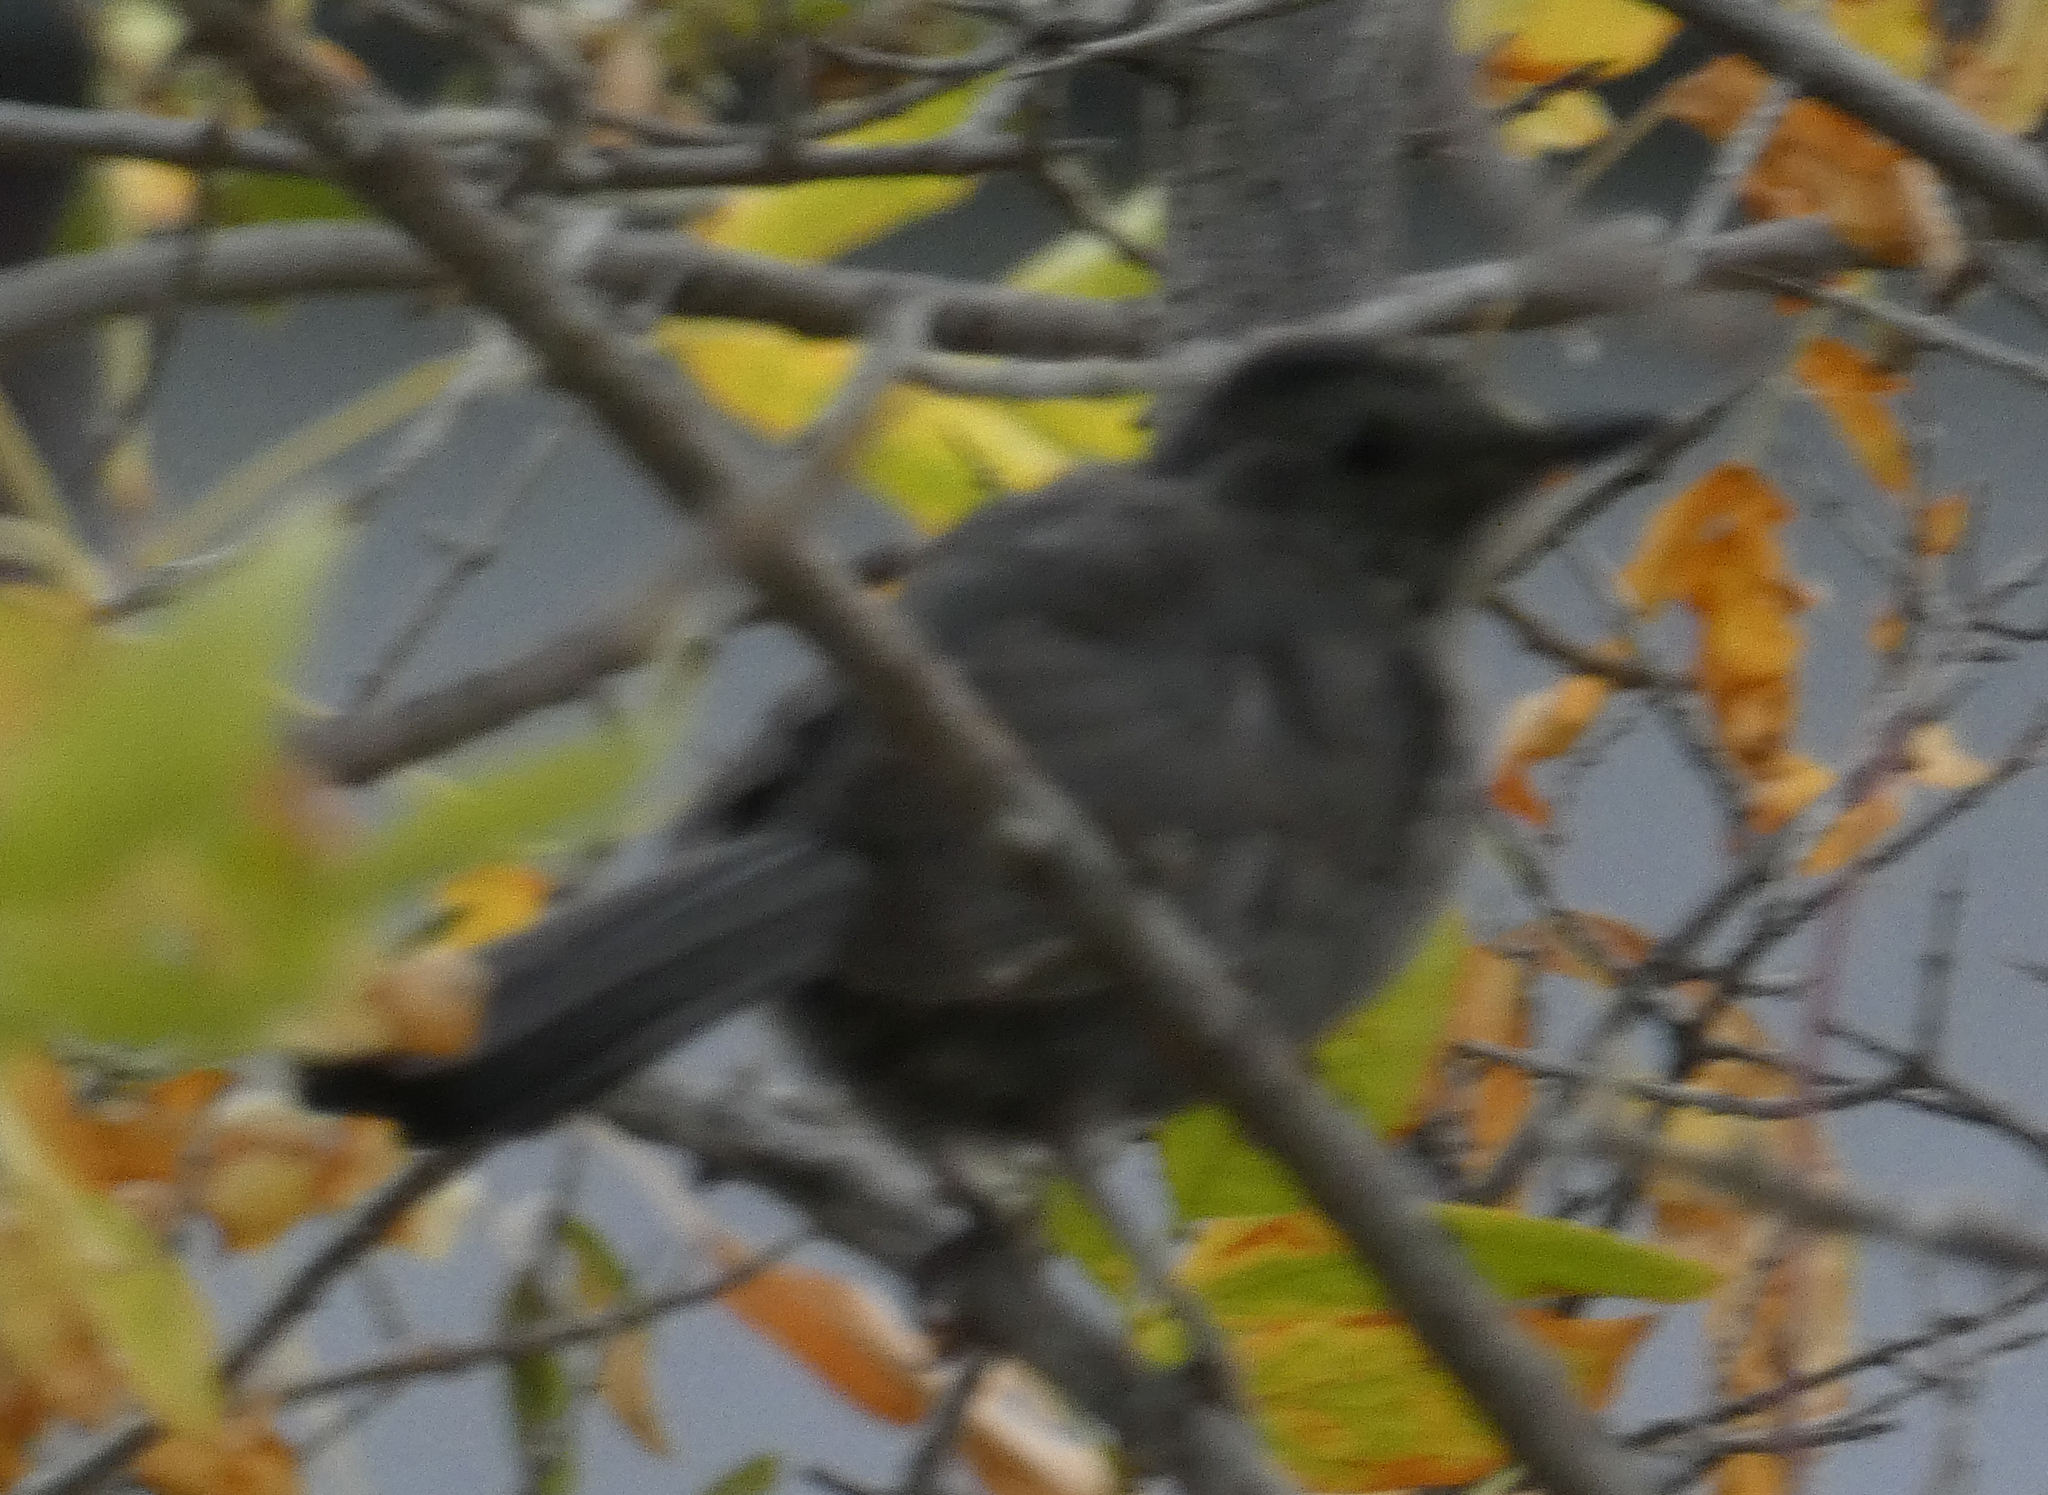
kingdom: Animalia
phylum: Chordata
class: Aves
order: Passeriformes
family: Mimidae
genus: Dumetella
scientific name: Dumetella carolinensis
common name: Gray catbird
